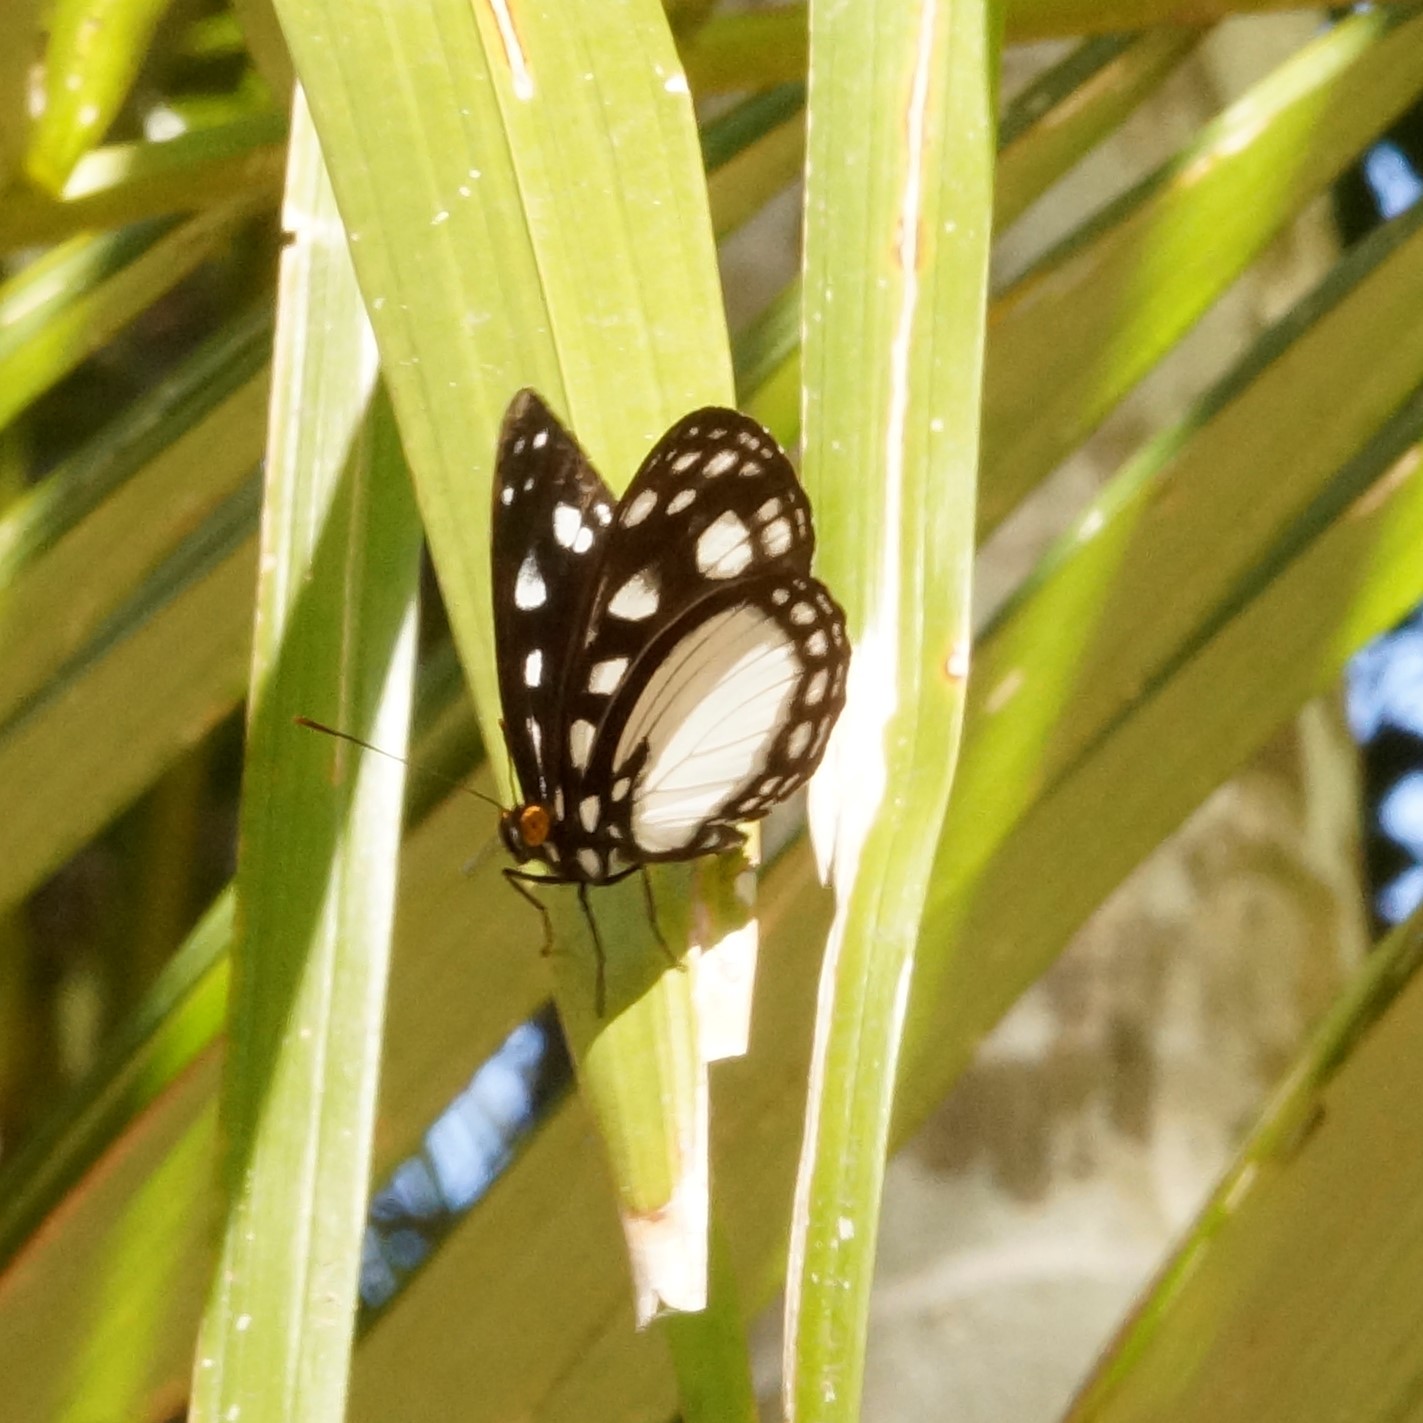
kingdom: Animalia
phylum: Arthropoda
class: Insecta
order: Lepidoptera
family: Nymphalidae
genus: Neptis
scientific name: Neptis praslini
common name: Yellow-eyed plane
